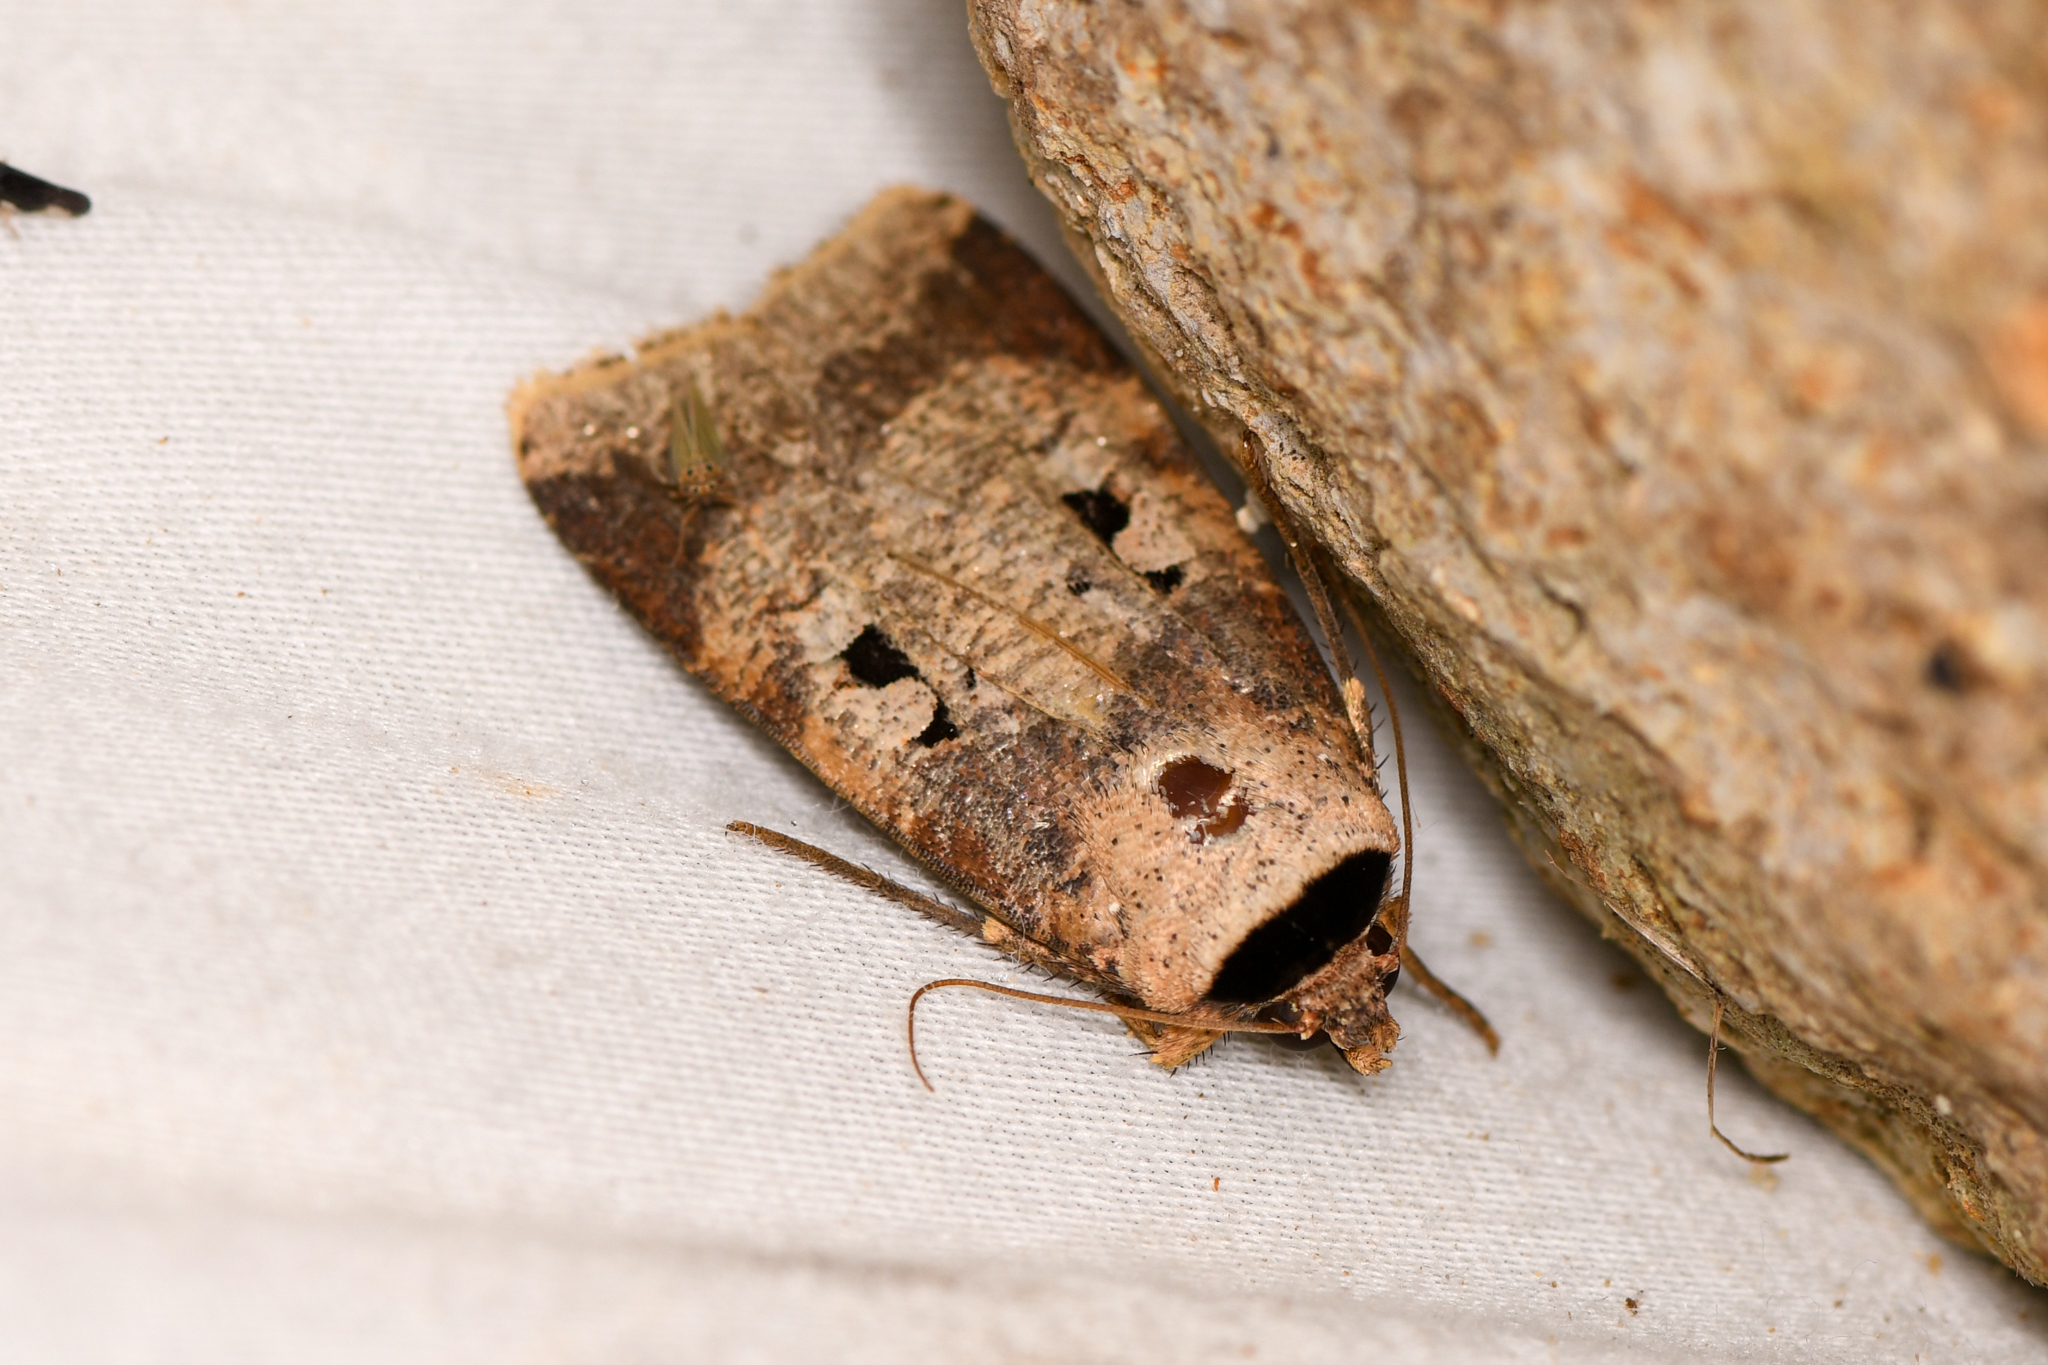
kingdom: Animalia
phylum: Arthropoda
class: Insecta
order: Lepidoptera
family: Noctuidae
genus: Praina
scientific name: Praina
